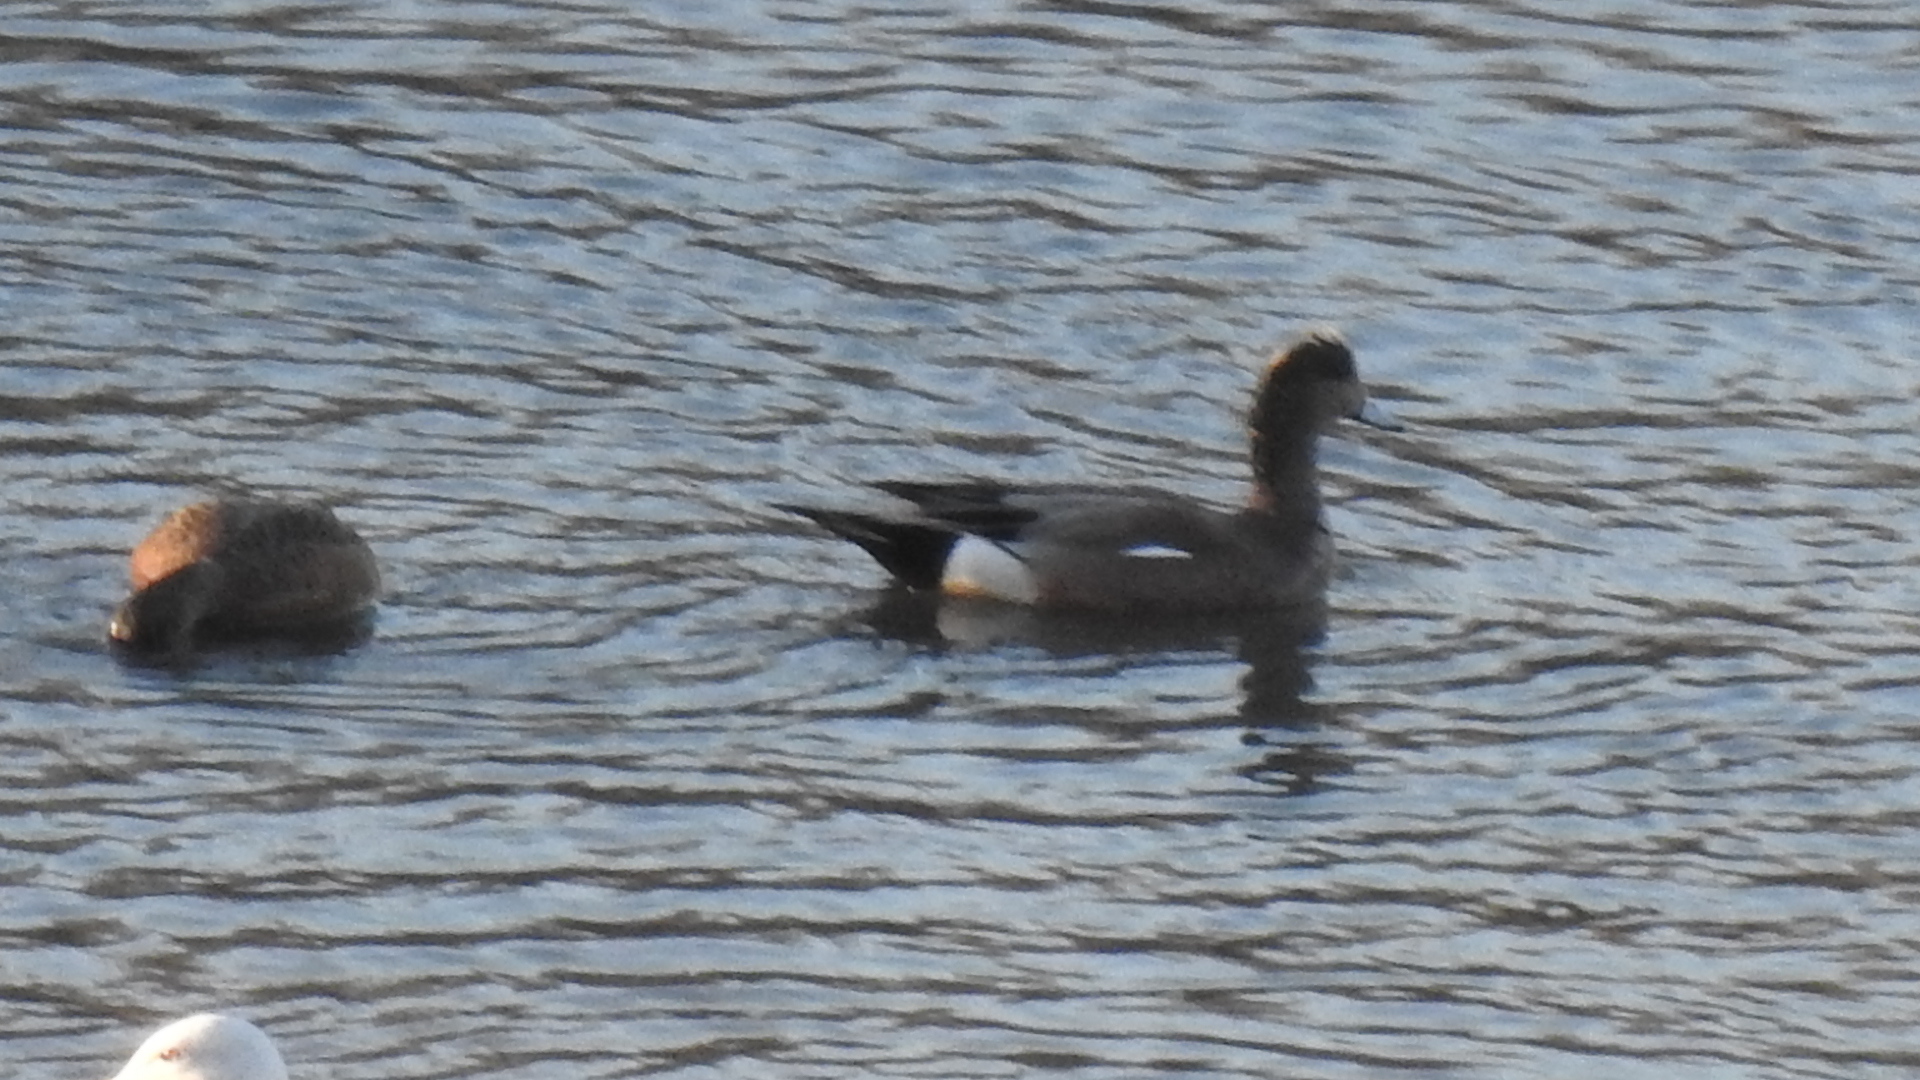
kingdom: Animalia
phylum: Chordata
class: Aves
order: Anseriformes
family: Anatidae
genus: Mareca
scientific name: Mareca americana
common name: American wigeon
